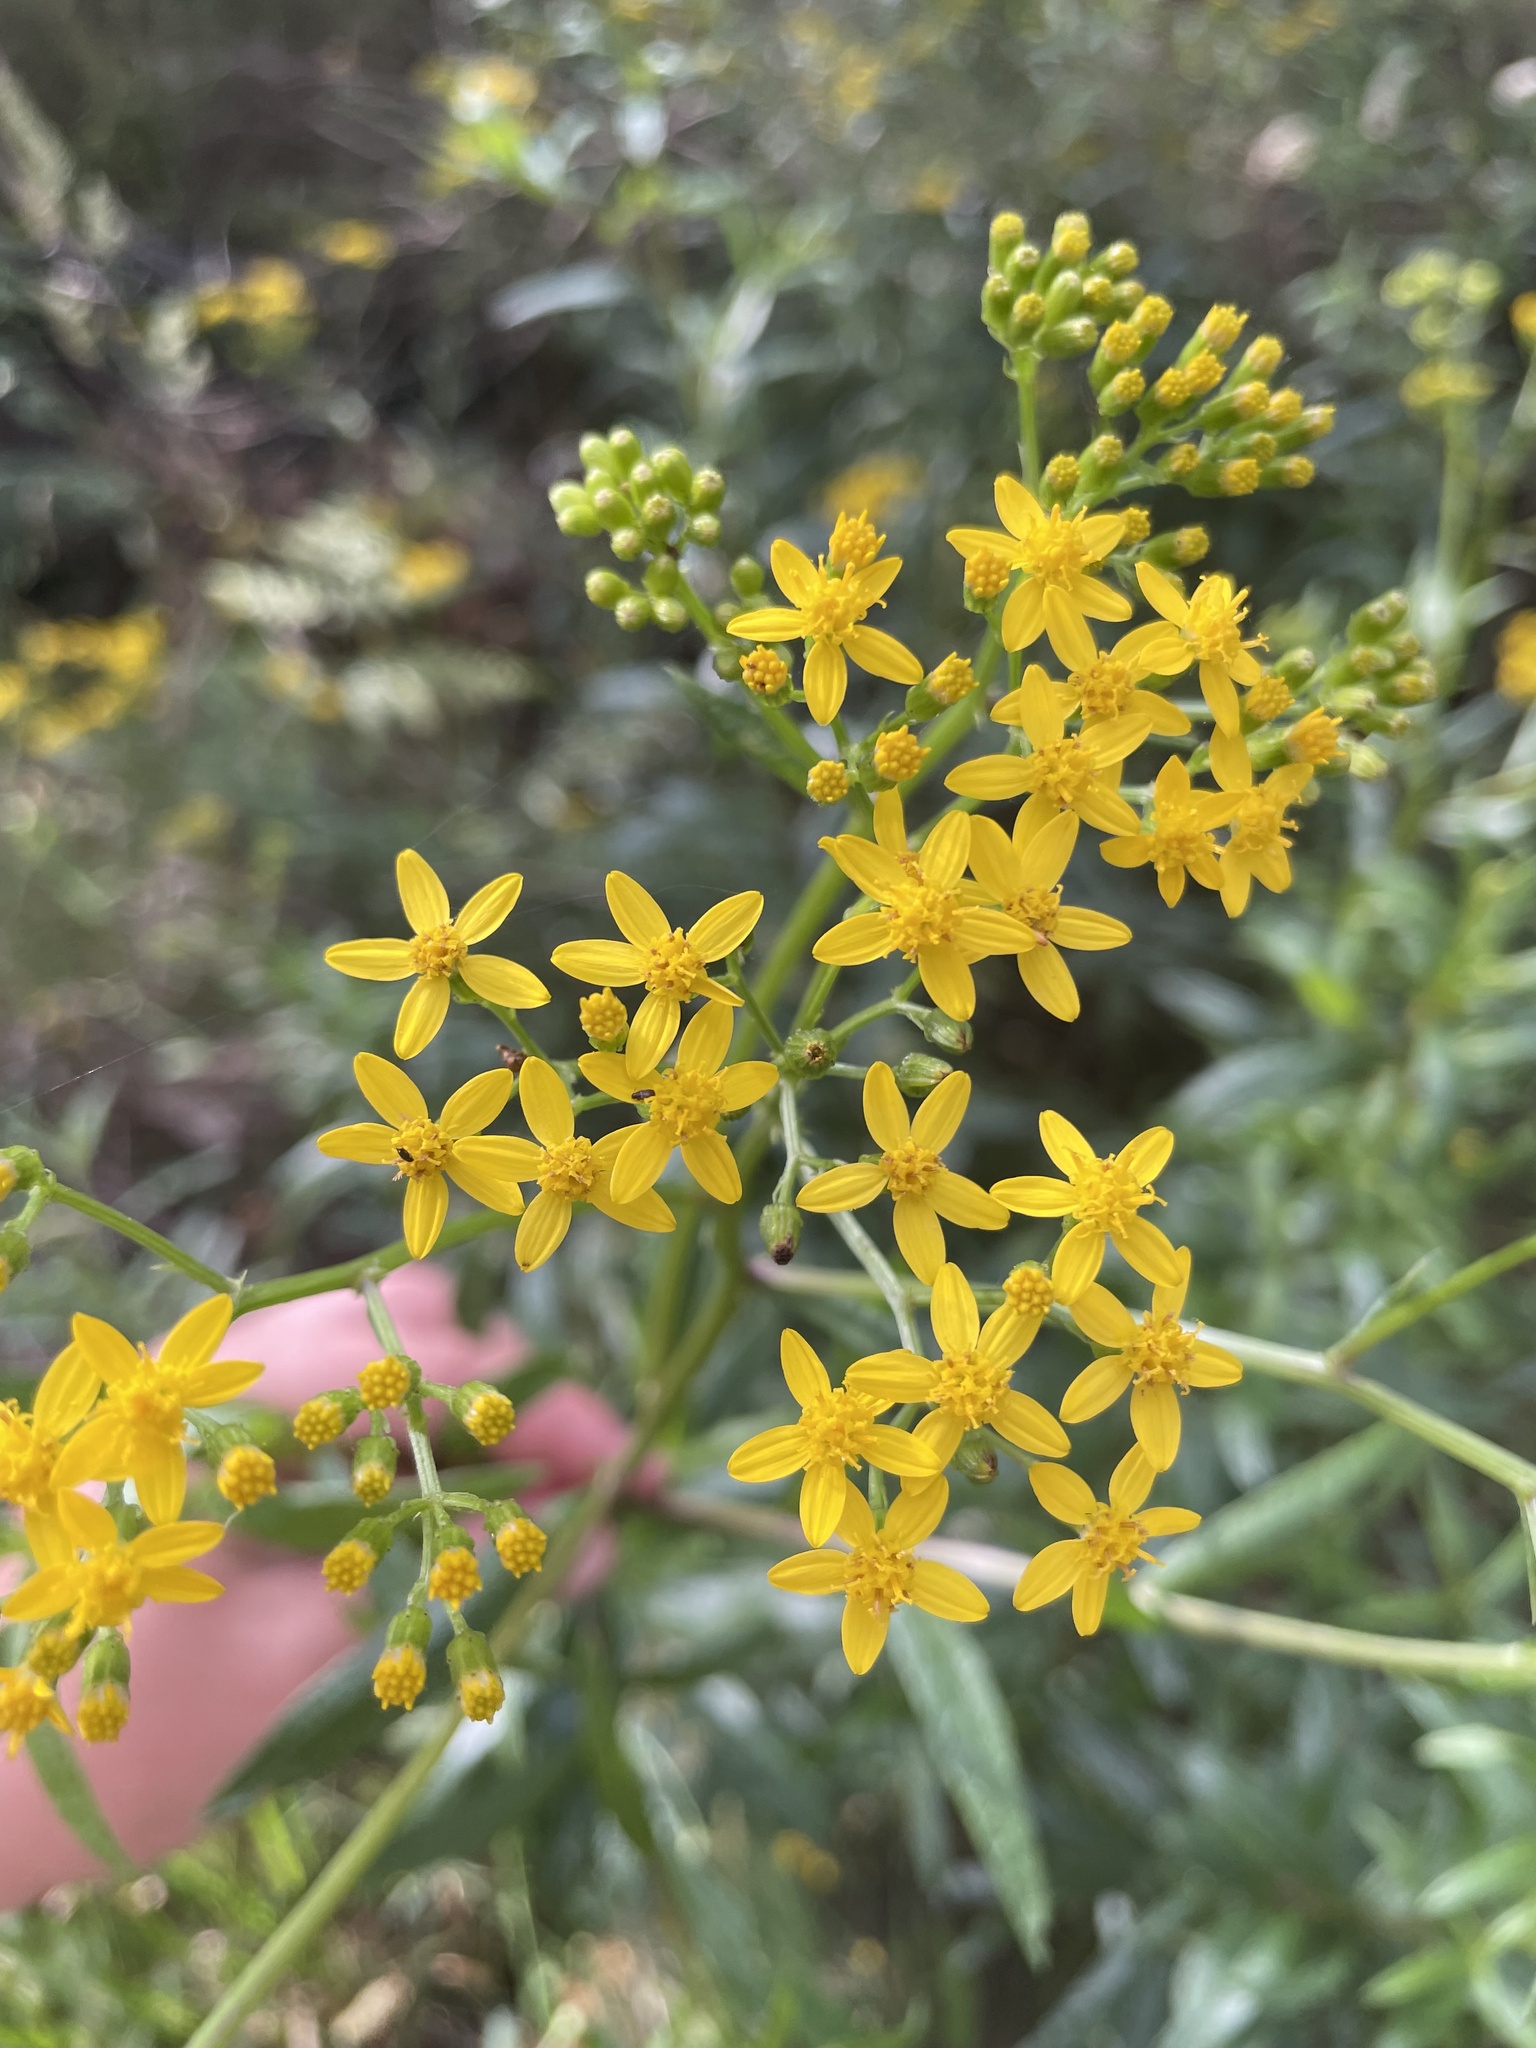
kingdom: Plantae
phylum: Tracheophyta
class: Magnoliopsida
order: Asterales
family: Asteraceae
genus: Senecio
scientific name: Senecio linearifolius
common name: Fireweed groundsel
